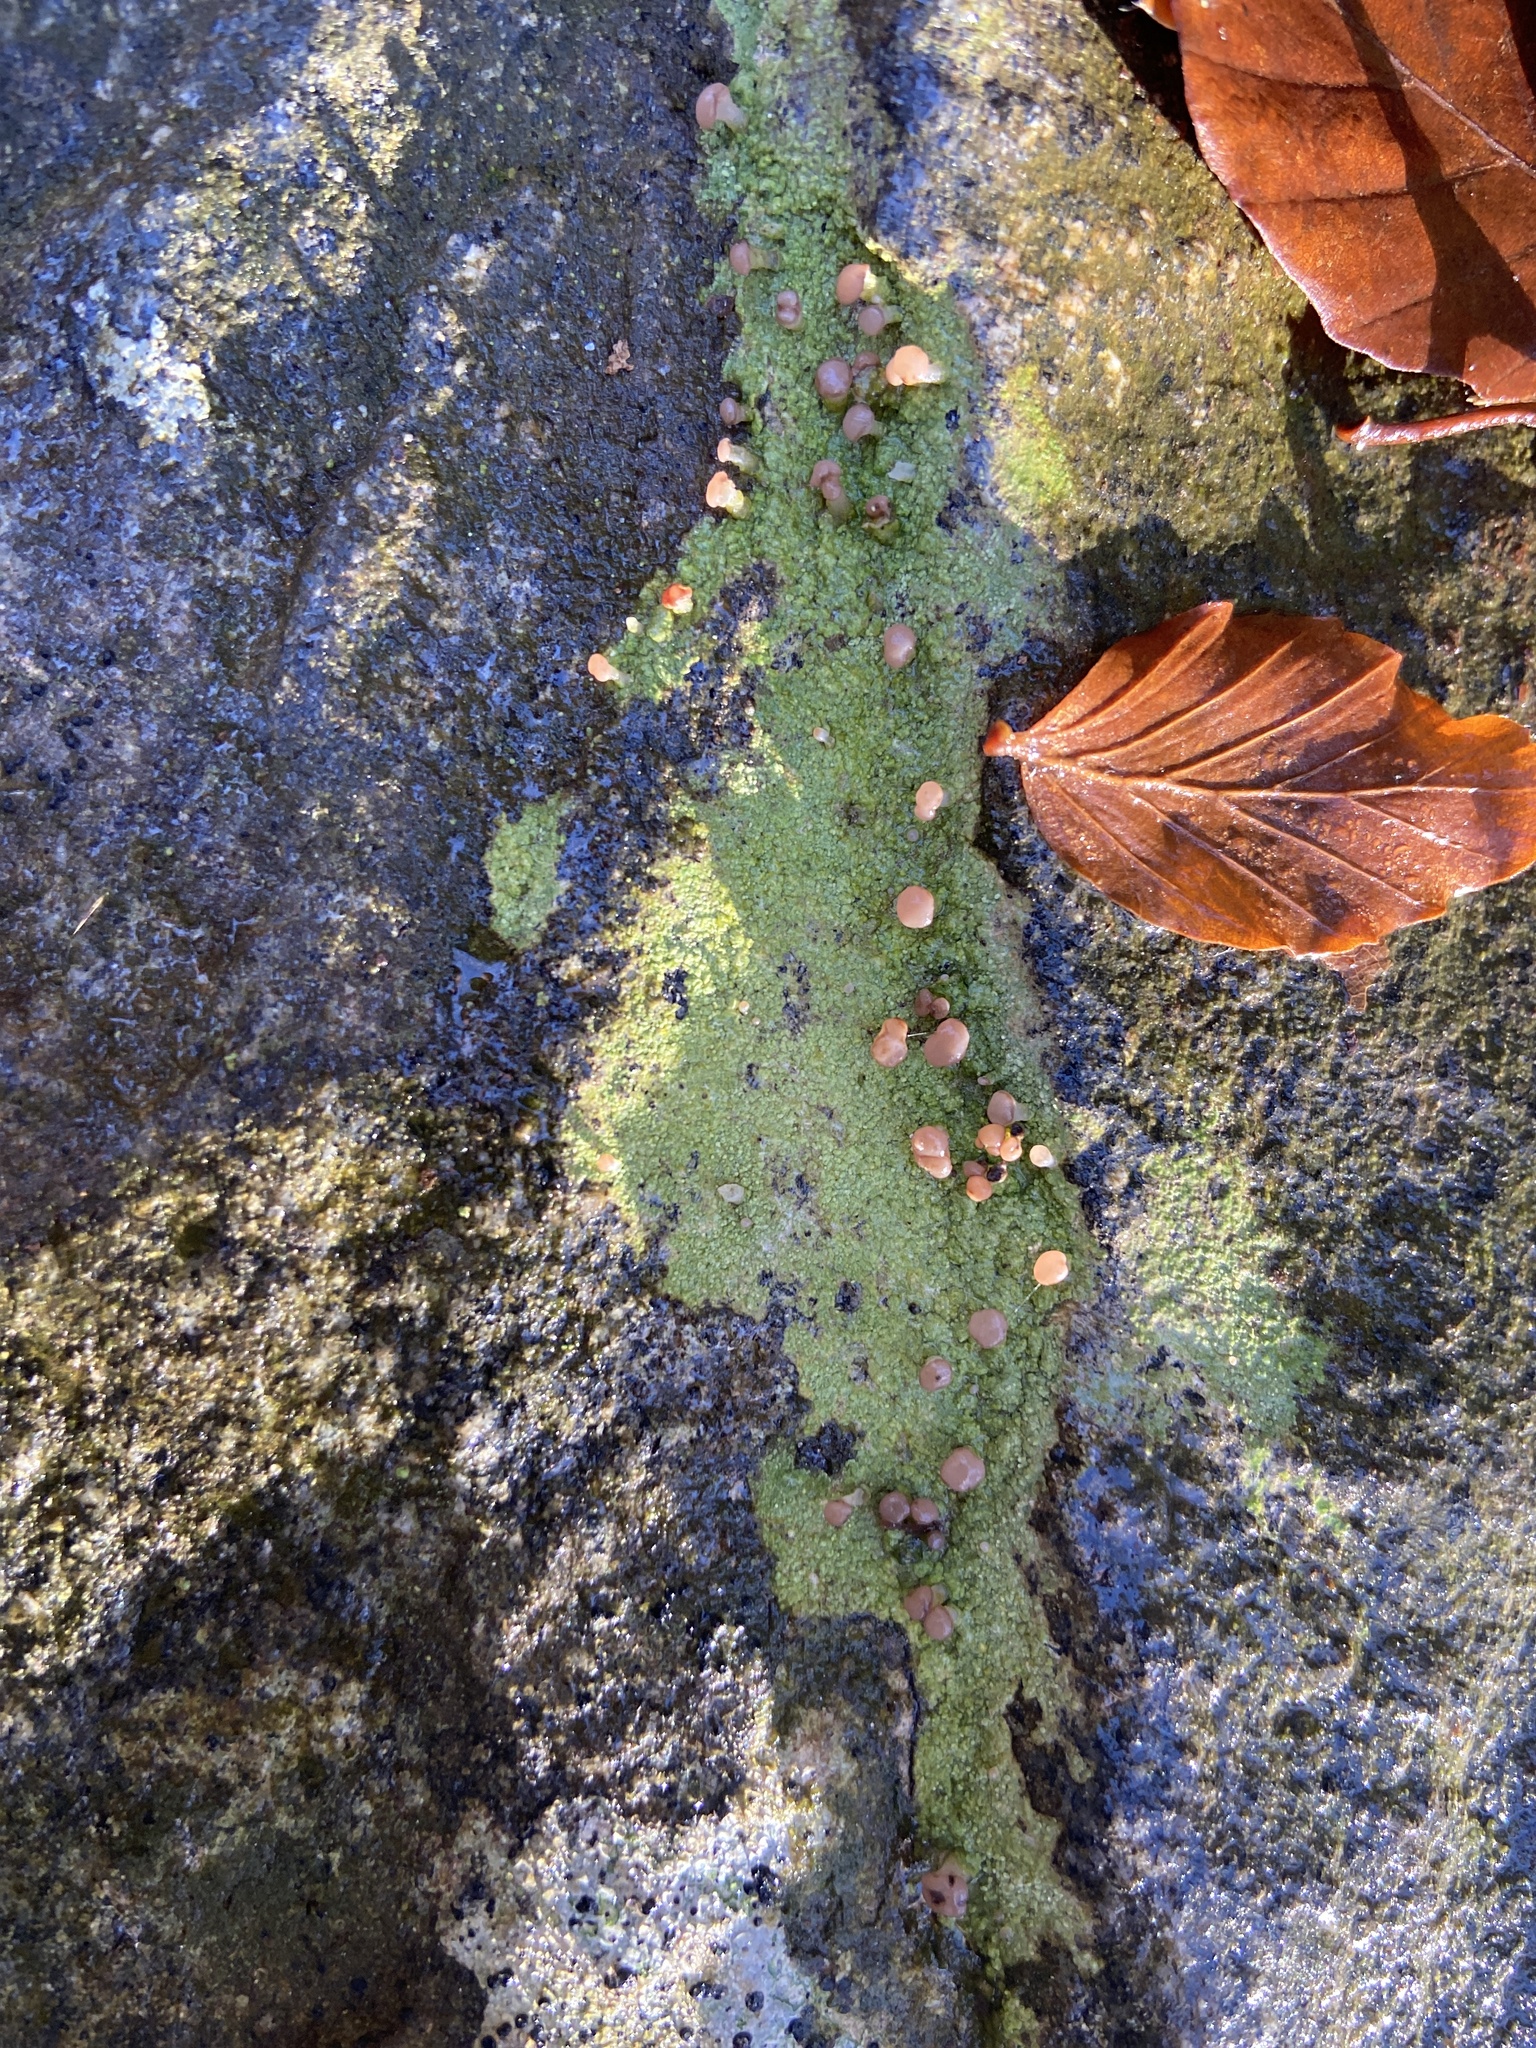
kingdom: Fungi
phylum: Ascomycota
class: Lecanoromycetes
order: Baeomycetales
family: Baeomycetaceae
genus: Baeomyces
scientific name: Baeomyces rufus
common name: Brown beret lichen
